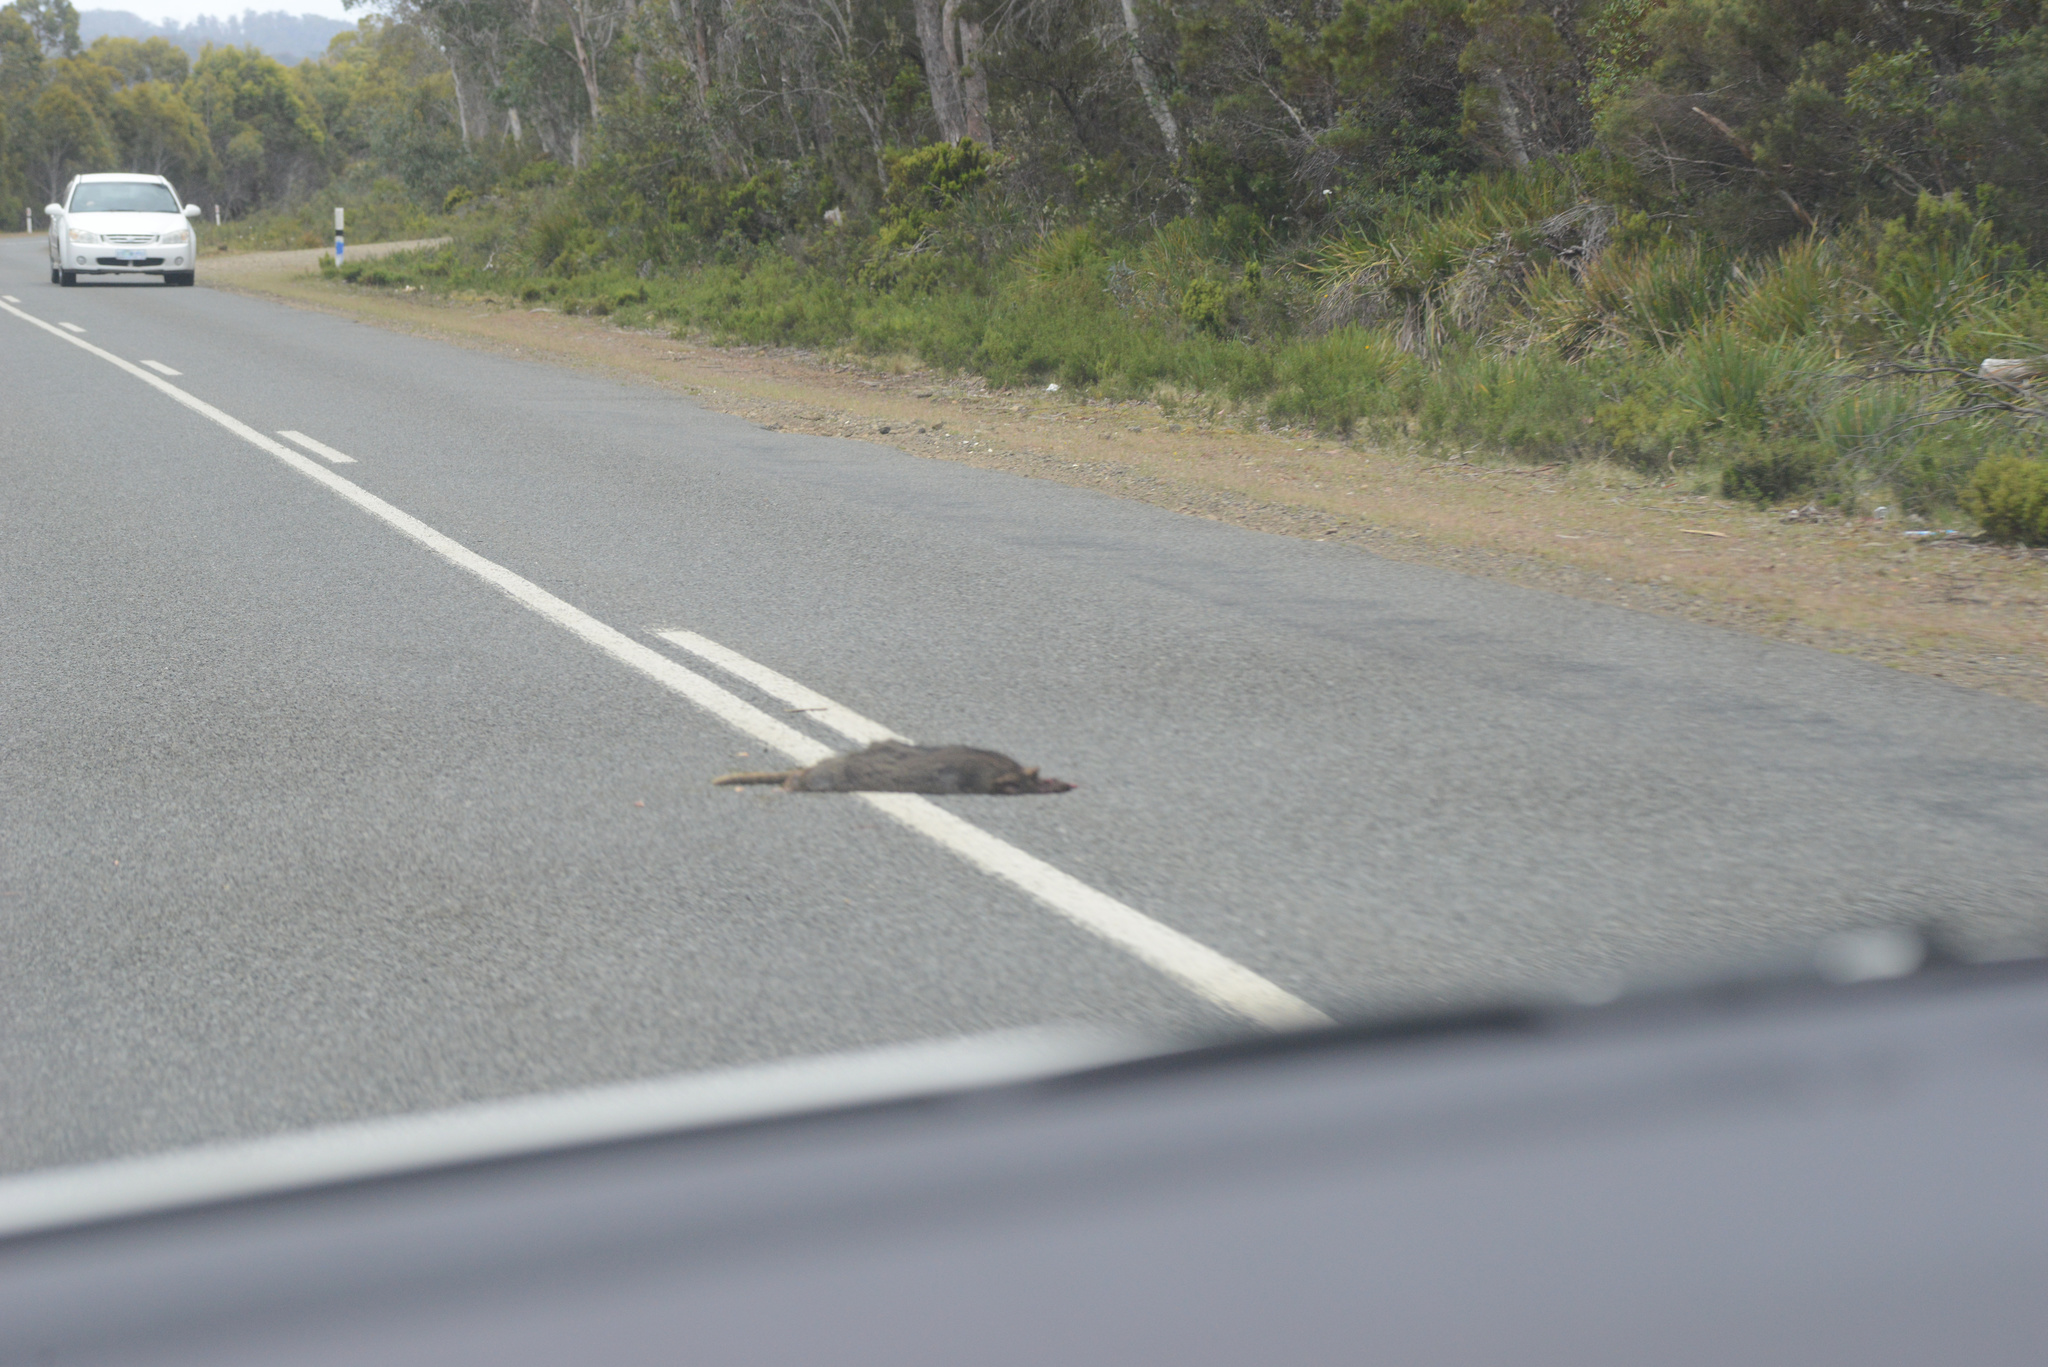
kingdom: Animalia
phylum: Chordata
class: Mammalia
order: Diprotodontia
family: Macropodidae
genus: Thylogale
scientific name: Thylogale billardierii
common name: Tasmanian pademelon
